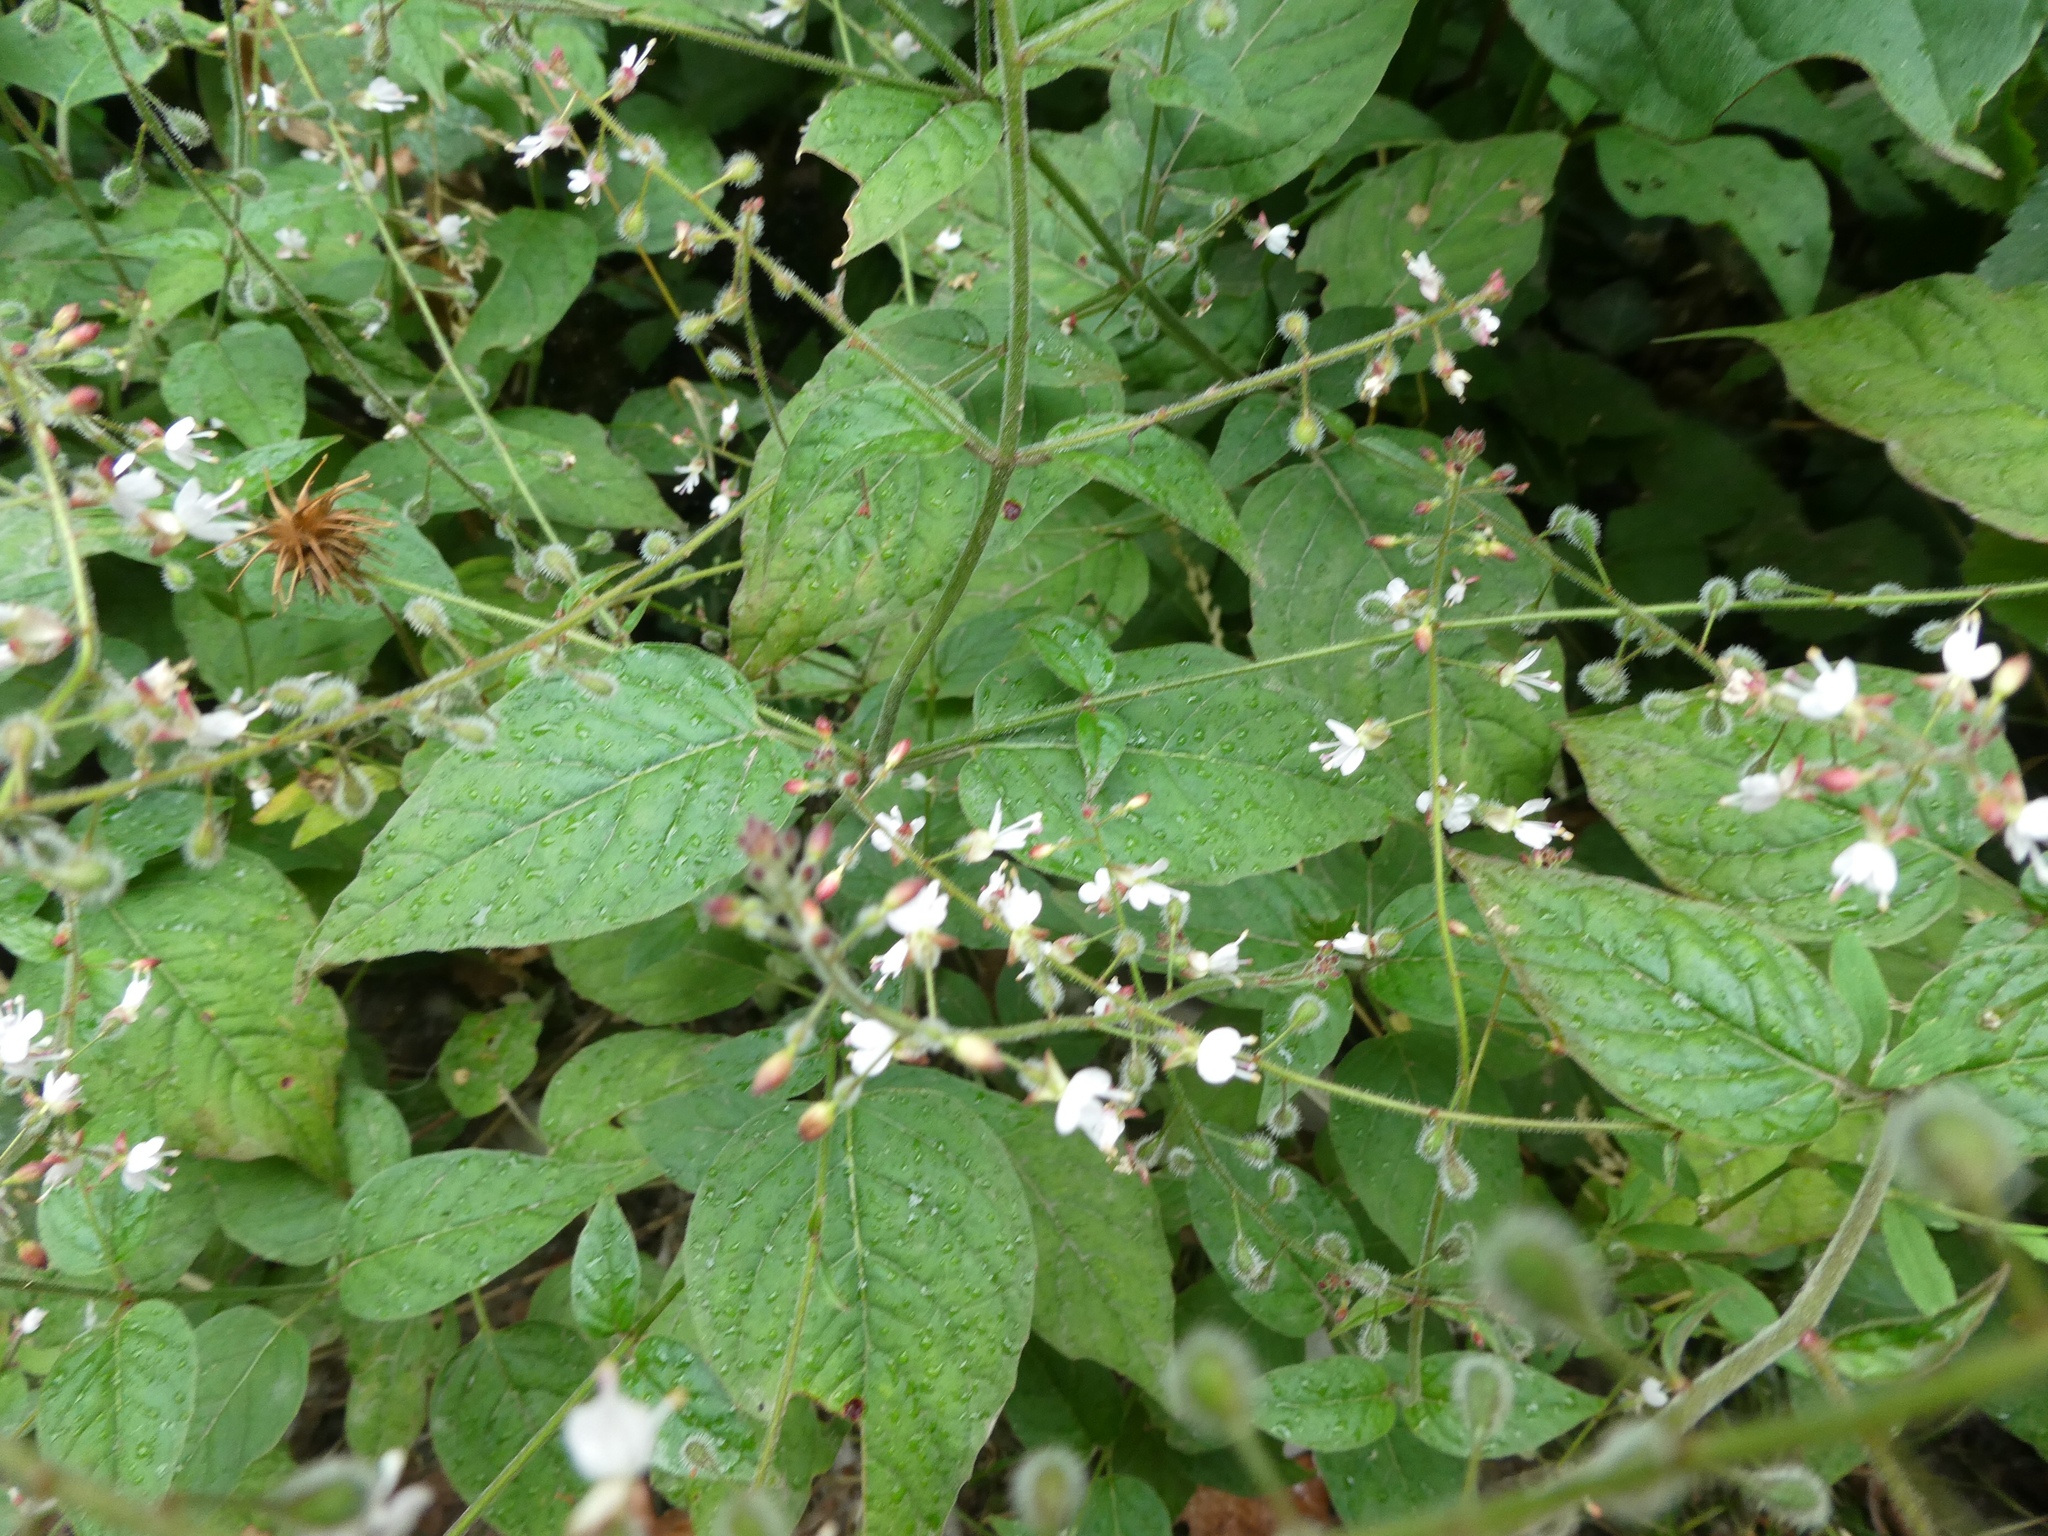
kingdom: Plantae
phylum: Tracheophyta
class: Magnoliopsida
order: Myrtales
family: Onagraceae
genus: Circaea
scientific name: Circaea lutetiana
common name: Enchanter's-nightshade
